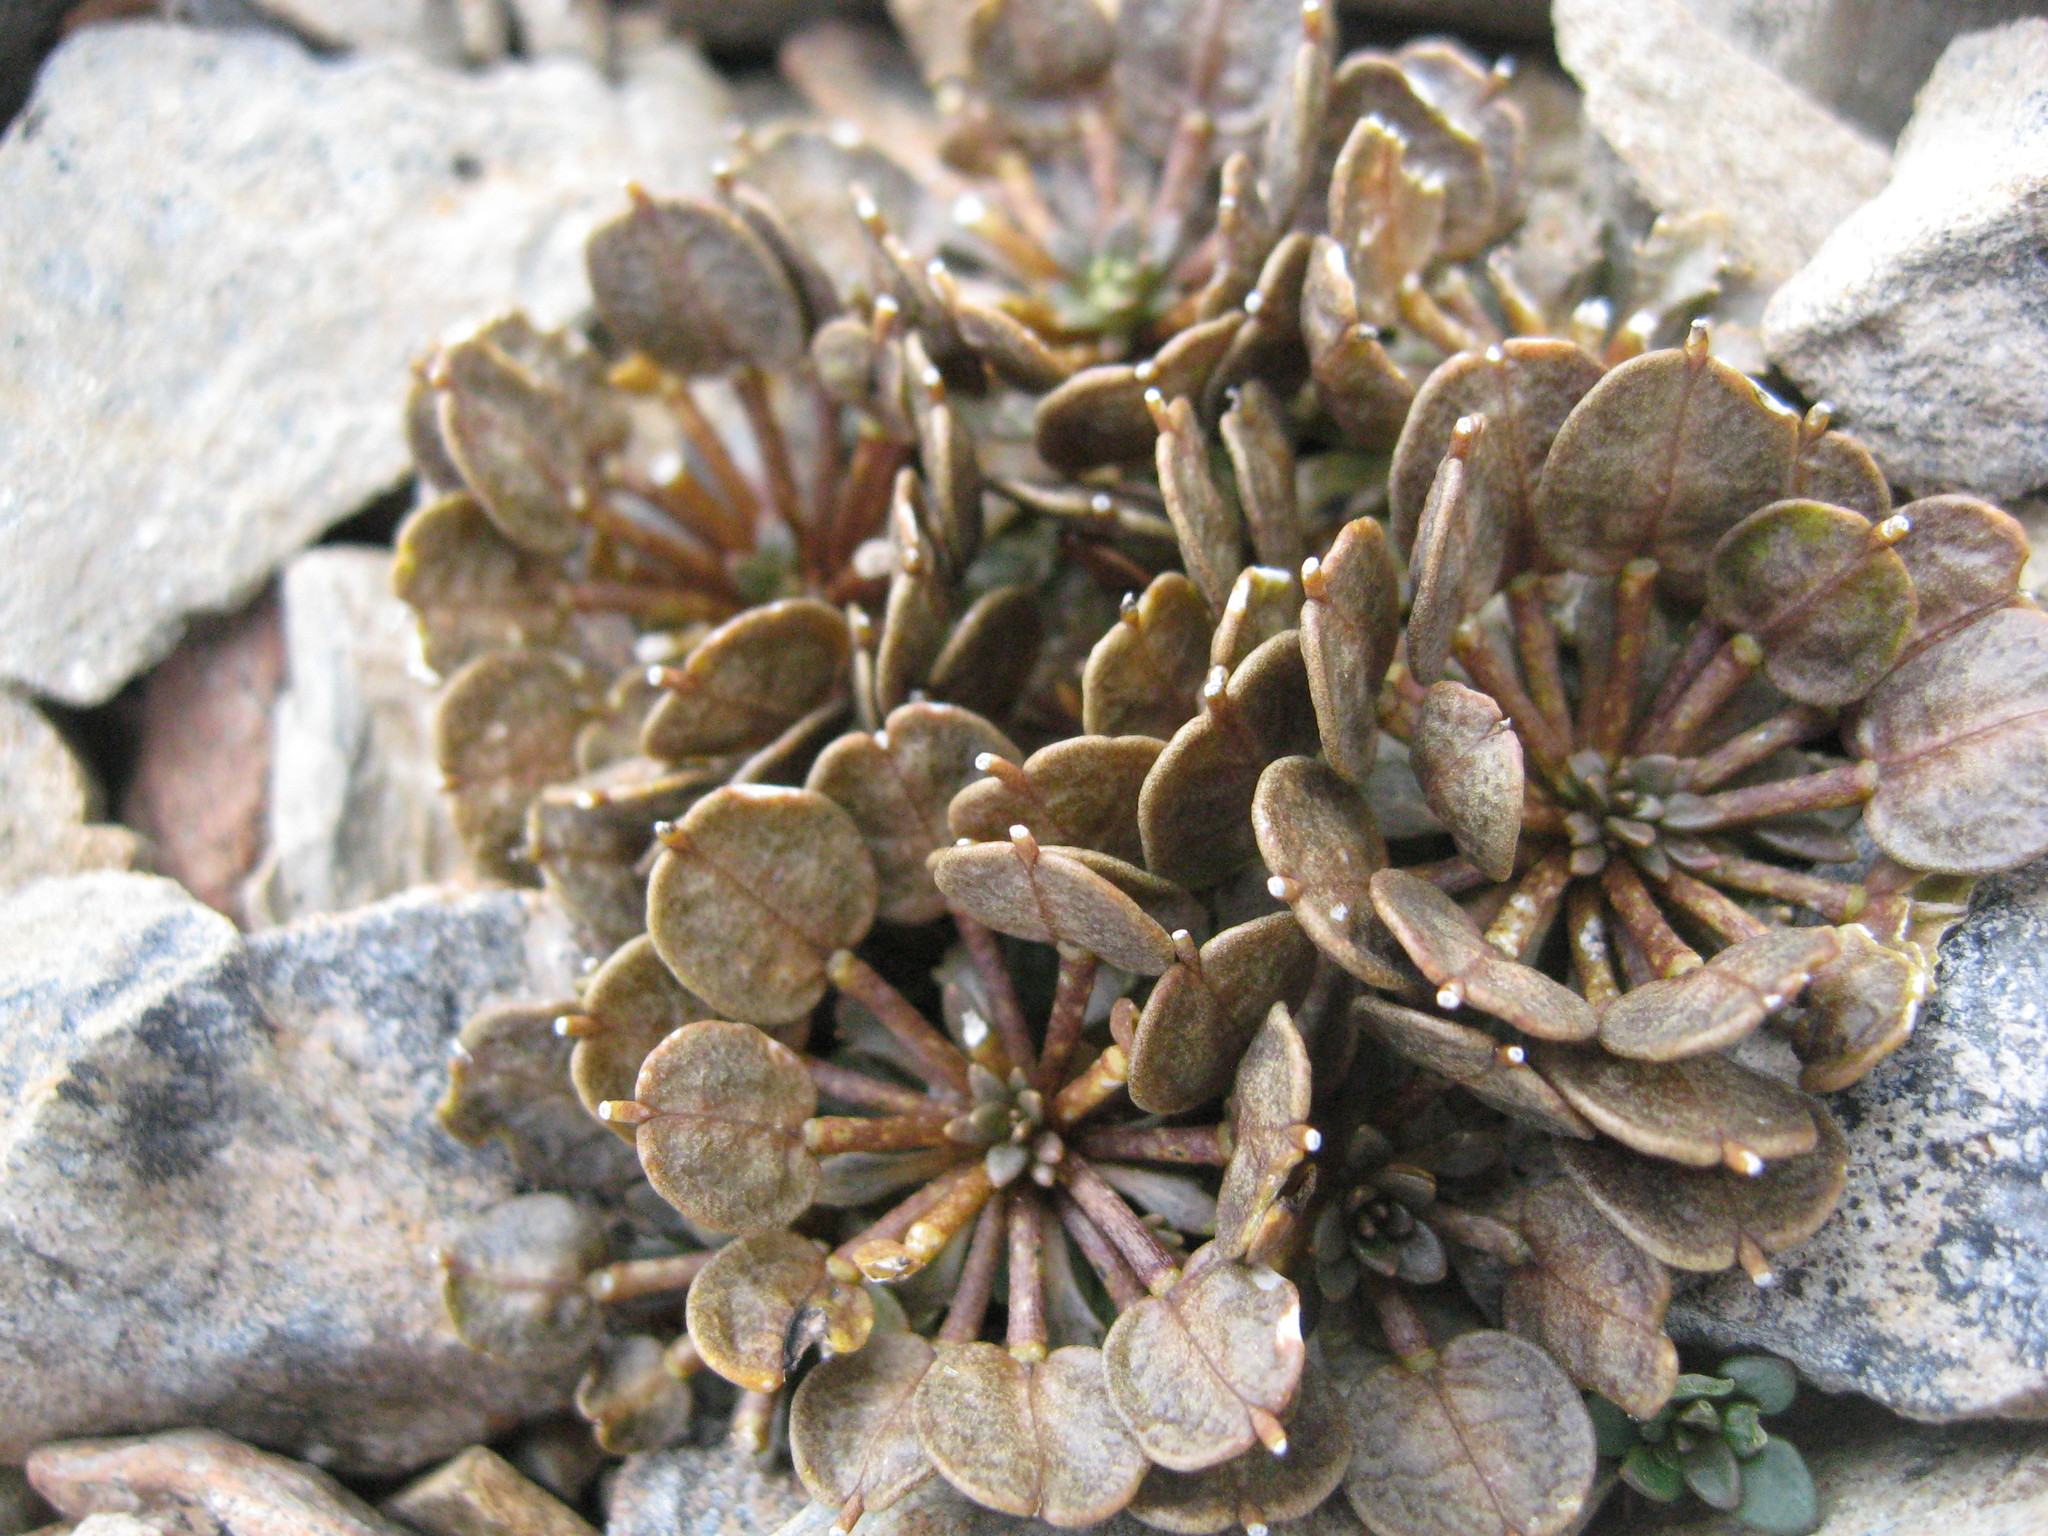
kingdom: Plantae
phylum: Tracheophyta
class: Magnoliopsida
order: Brassicales
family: Brassicaceae
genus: Notothlaspi
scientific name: Notothlaspi australe
